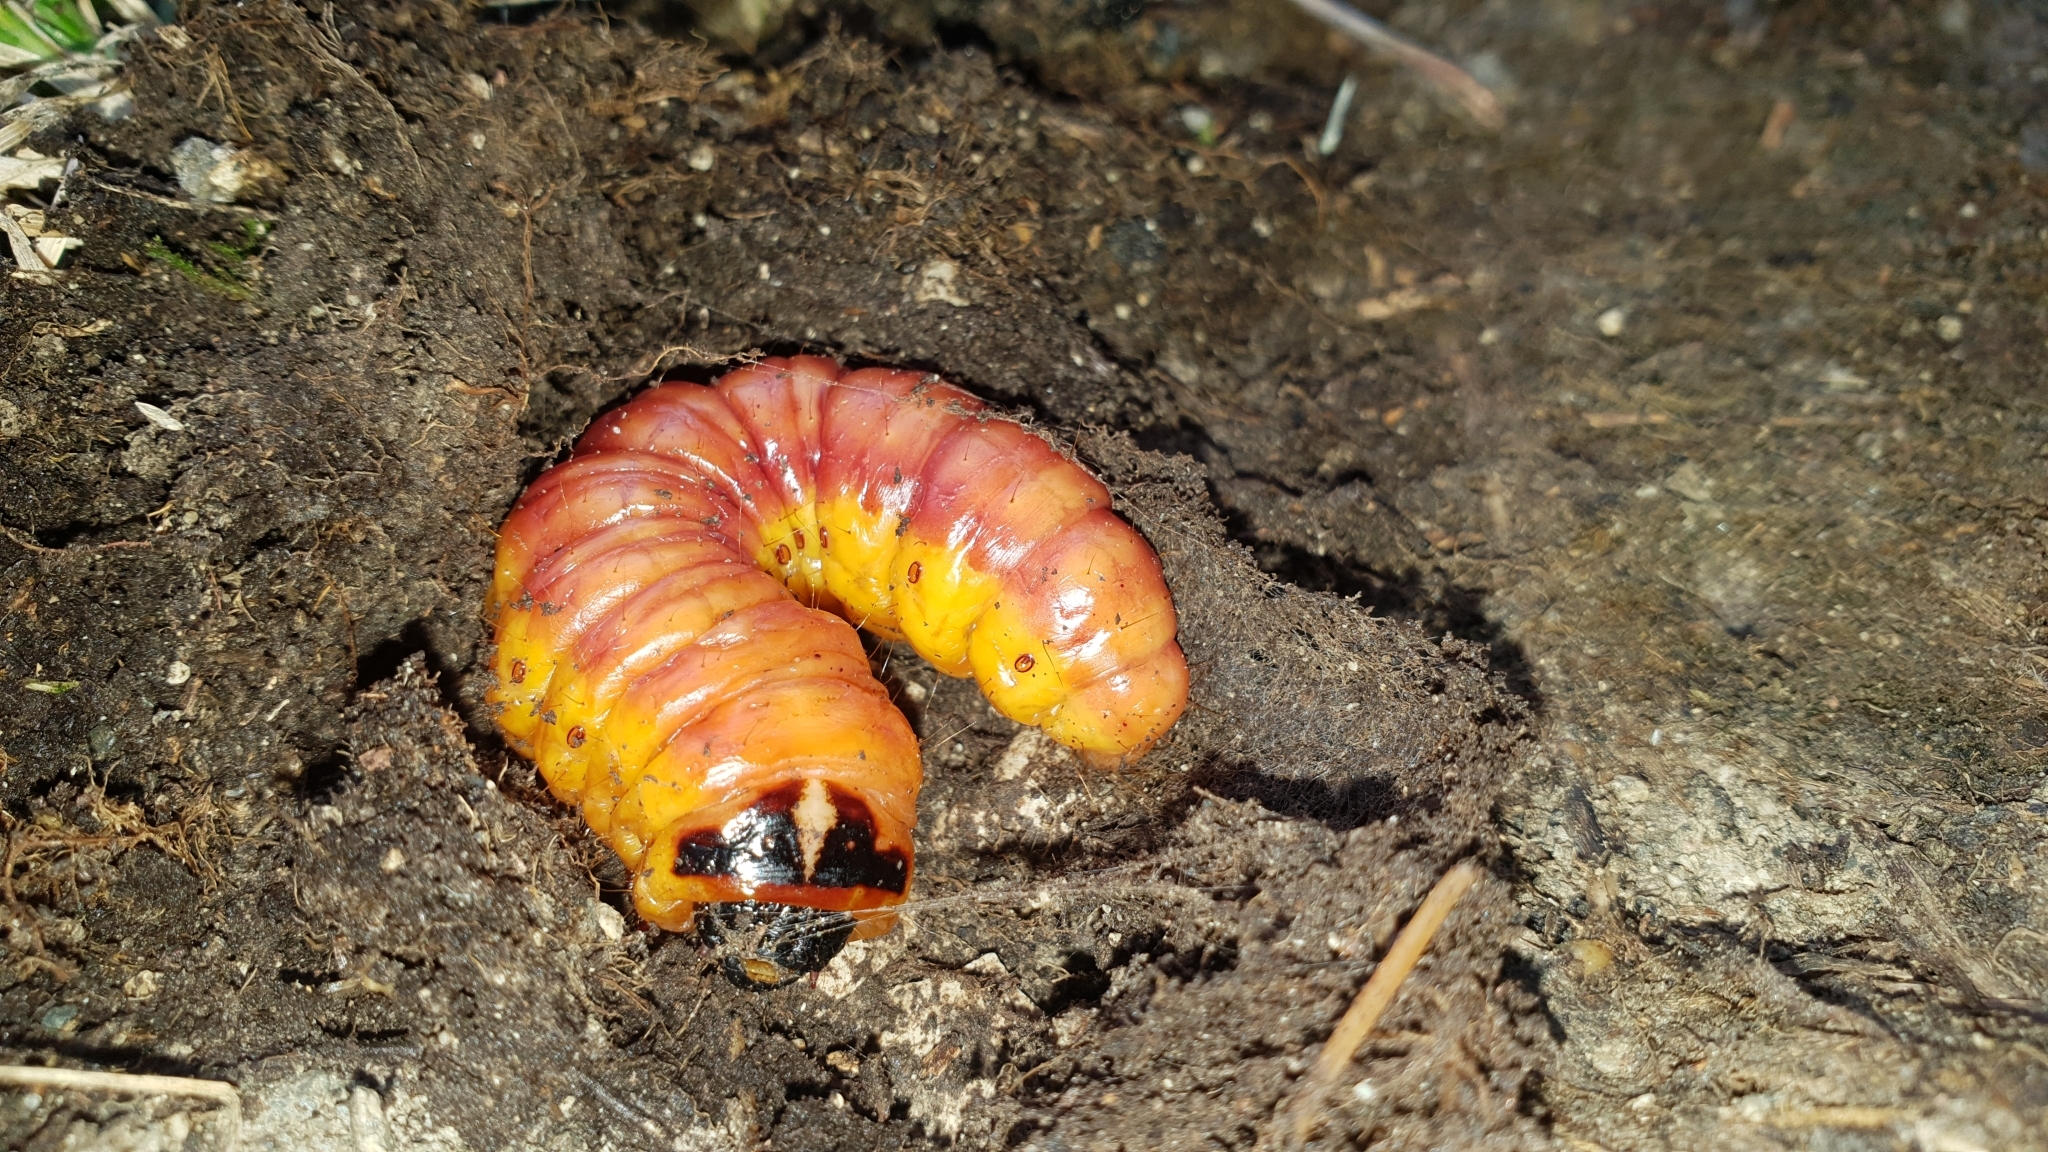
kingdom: Animalia
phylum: Arthropoda
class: Insecta
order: Lepidoptera
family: Cossidae
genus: Cossus
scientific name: Cossus cossus
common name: Goat moth
